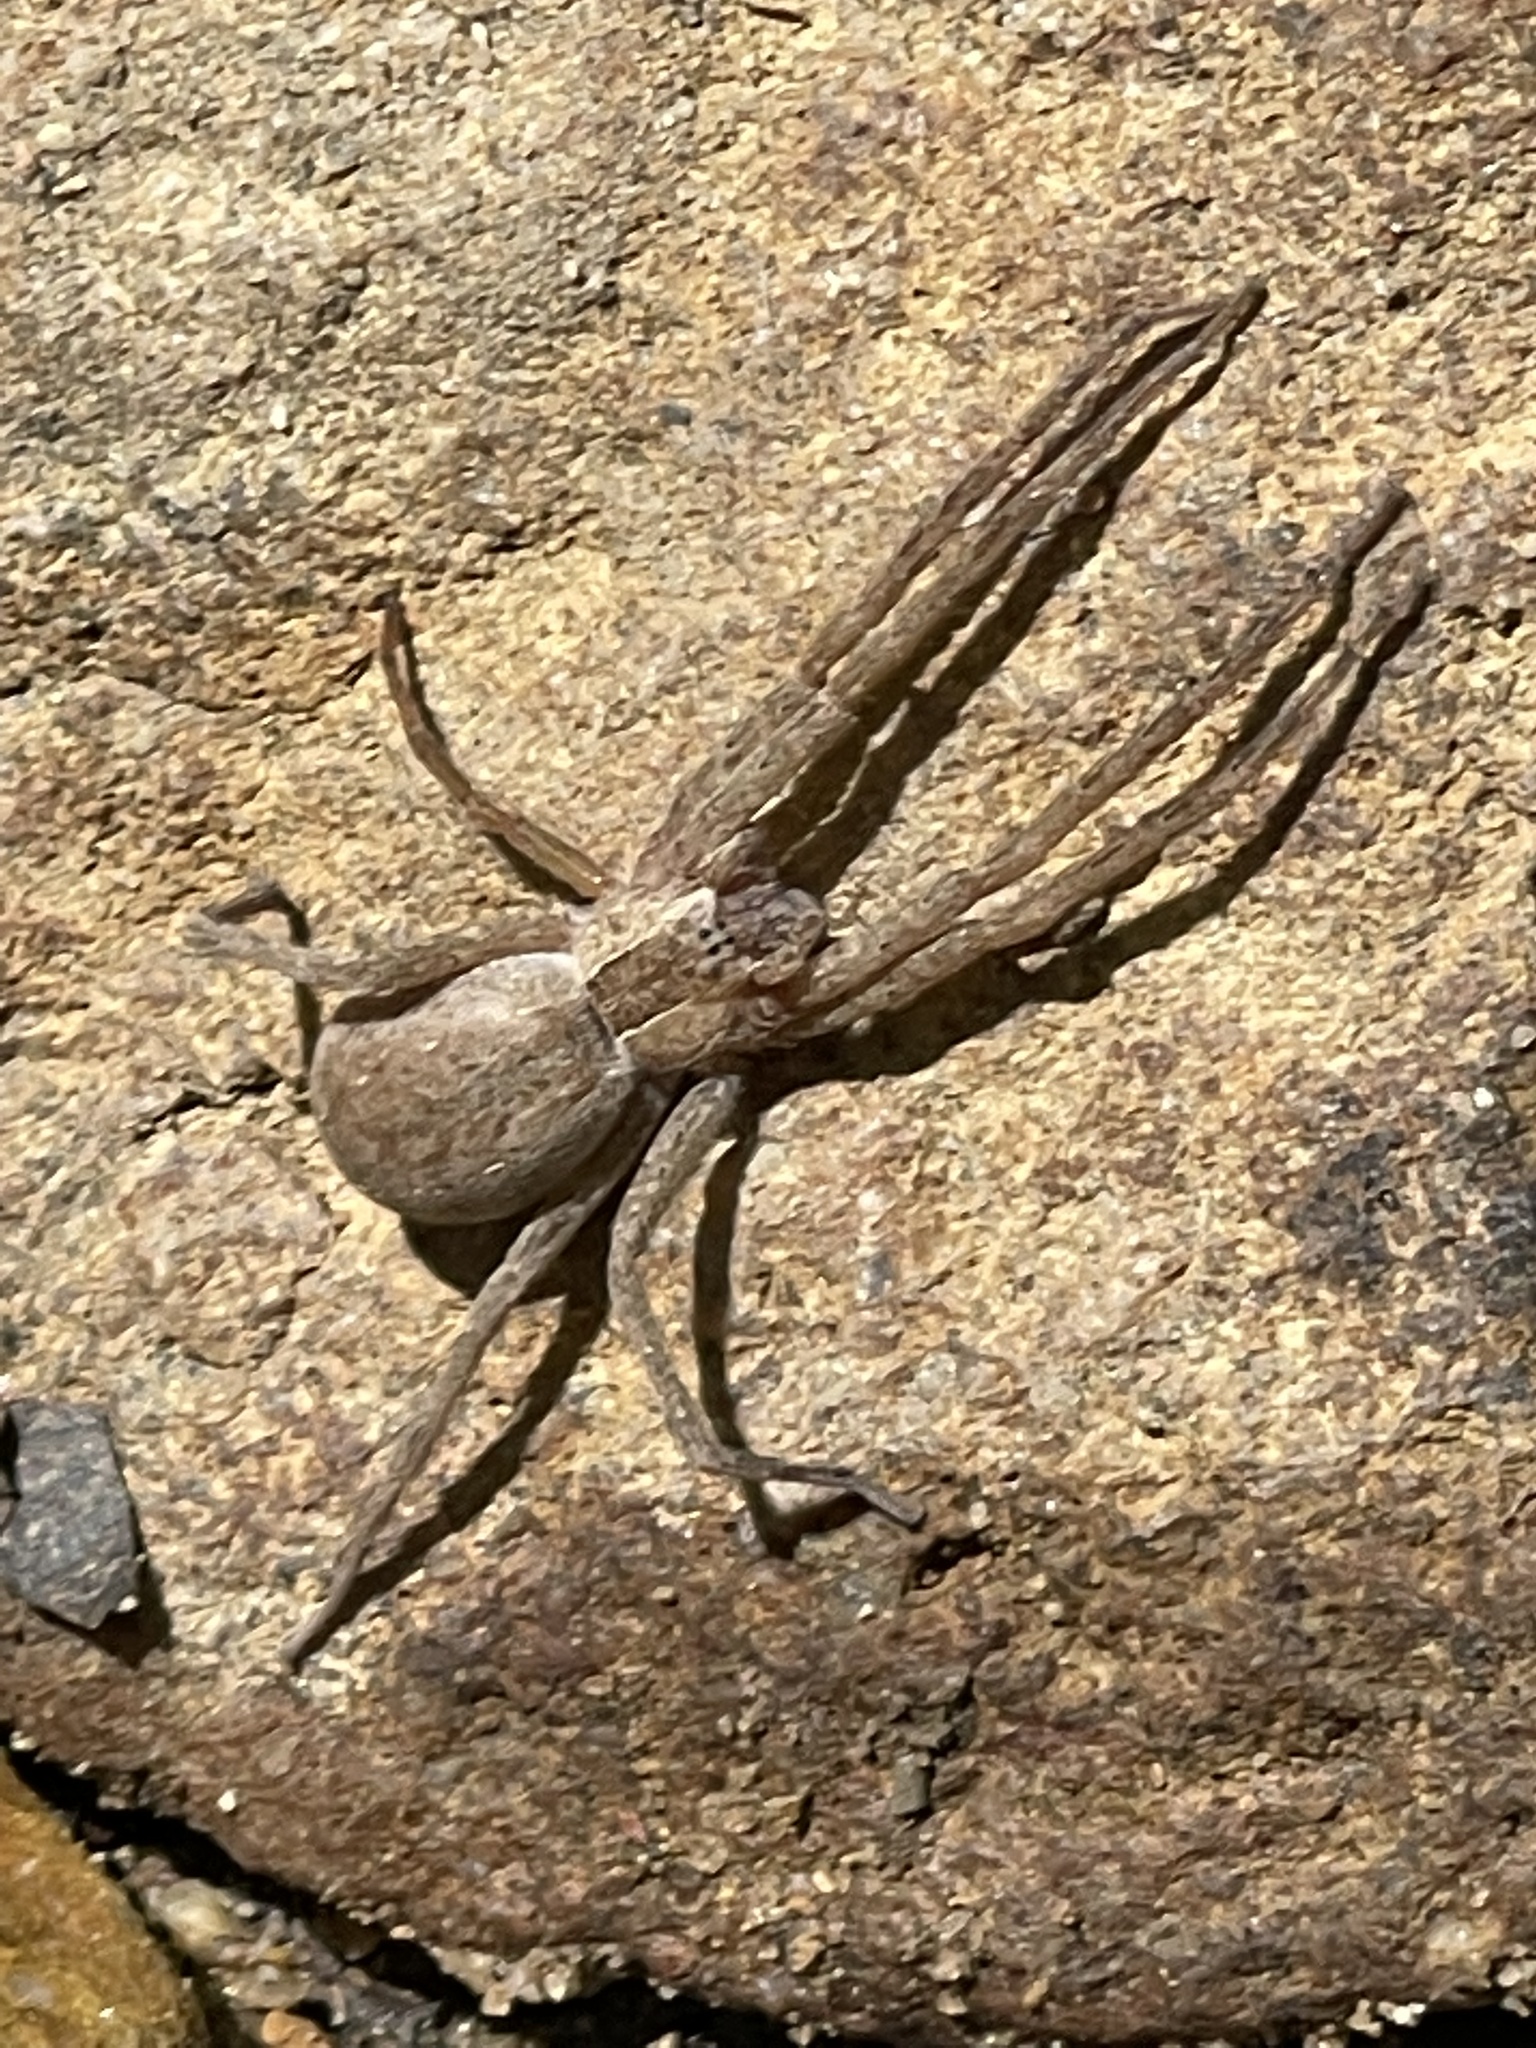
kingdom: Animalia
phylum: Arthropoda
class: Arachnida
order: Araneae
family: Pisauridae
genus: Pisaurina
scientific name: Pisaurina mira
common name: American nursery web spider
